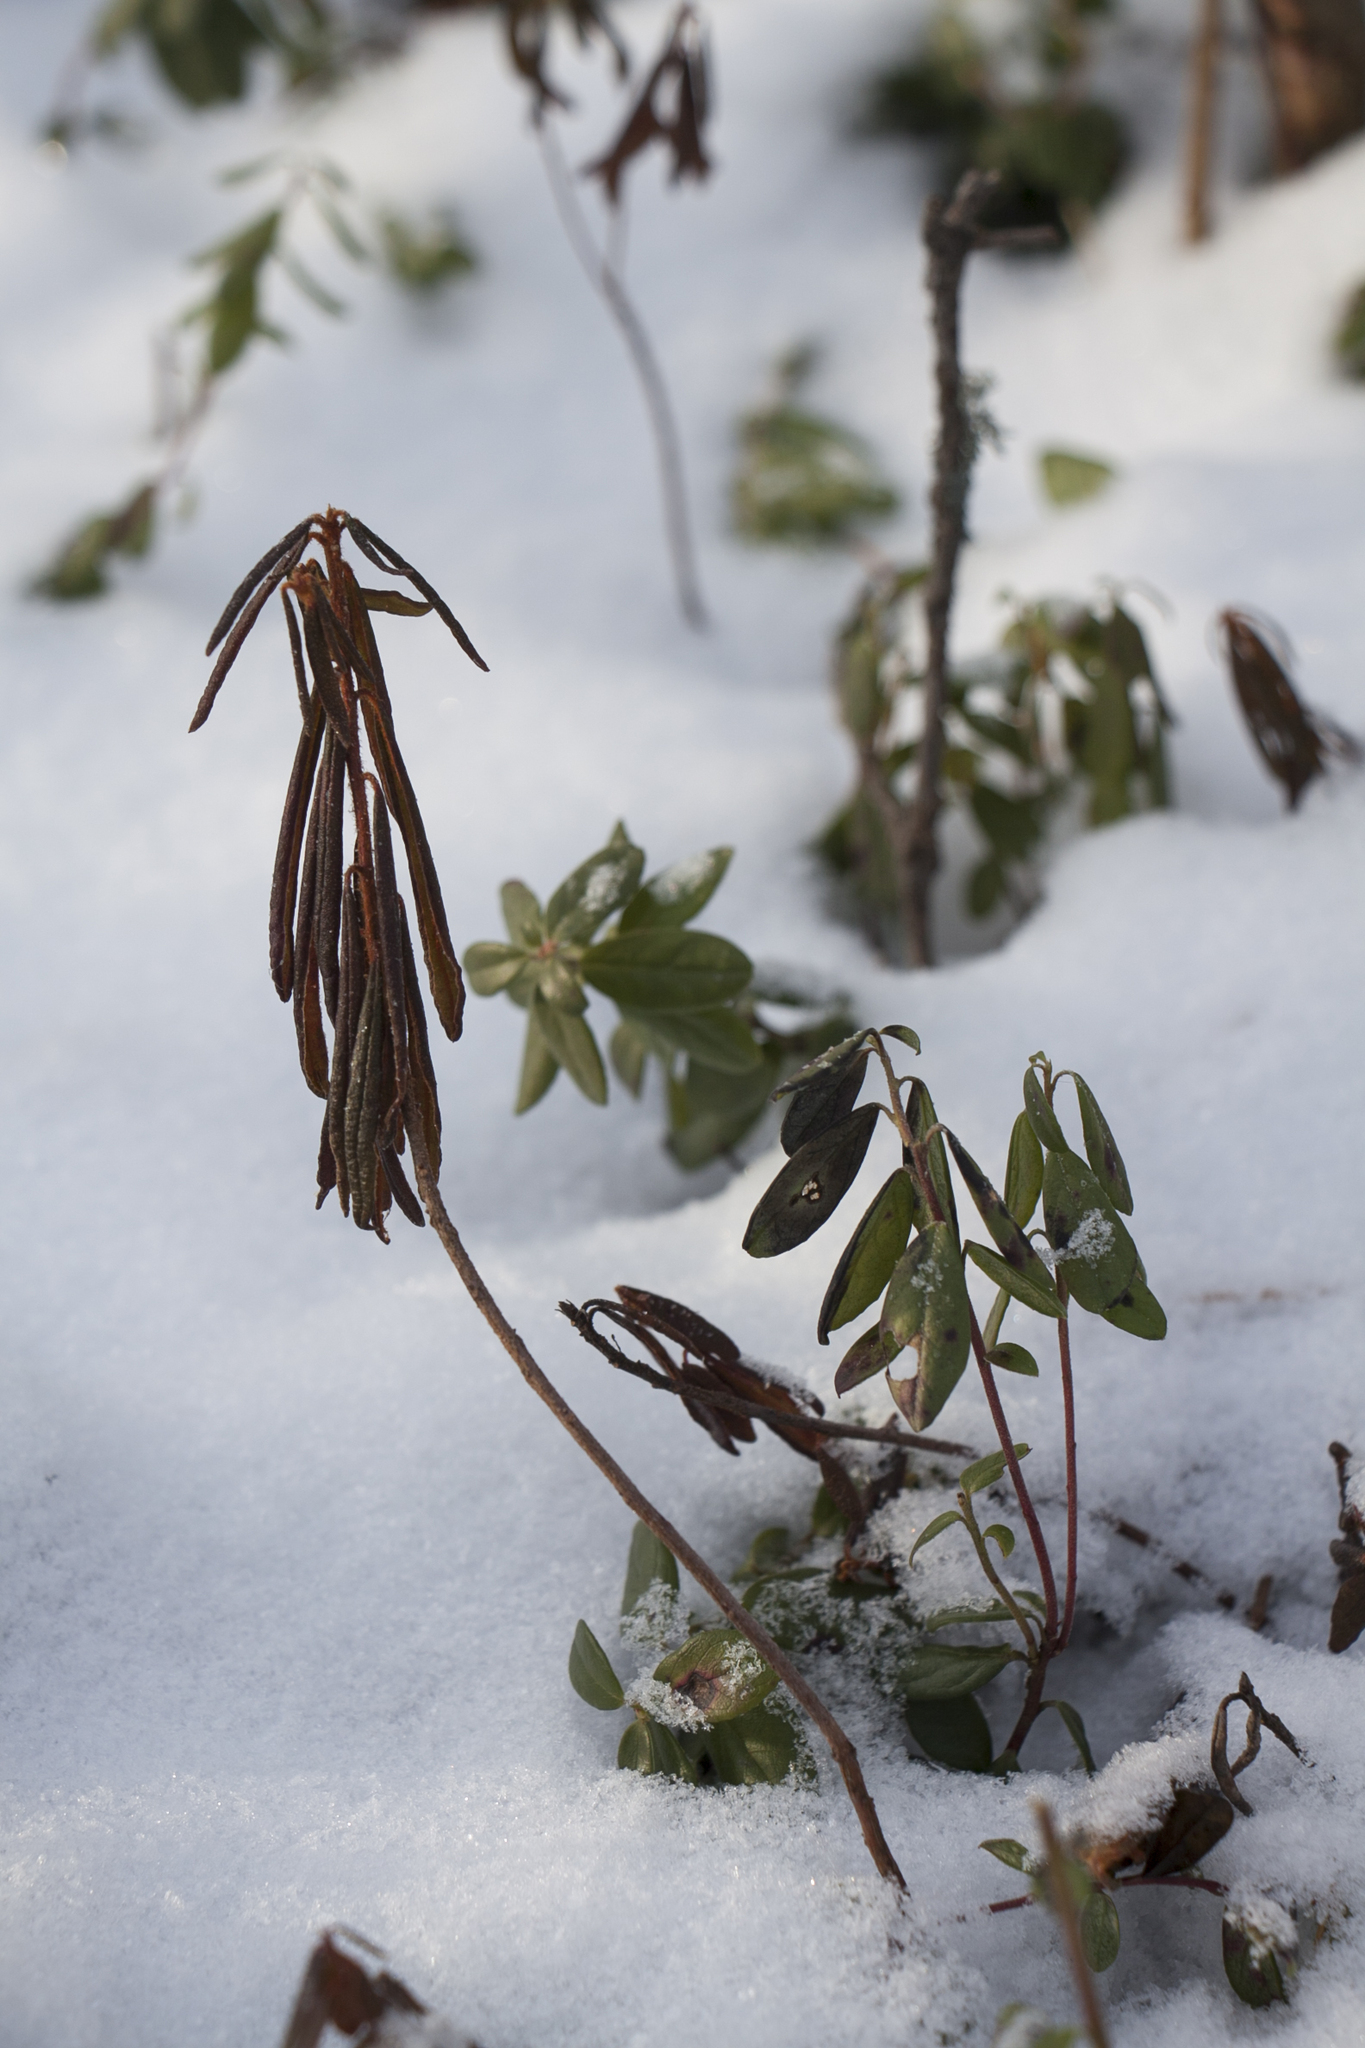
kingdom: Plantae
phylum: Tracheophyta
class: Magnoliopsida
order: Ericales
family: Ericaceae
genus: Rhododendron
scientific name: Rhododendron tomentosum
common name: Marsh labrador tea
